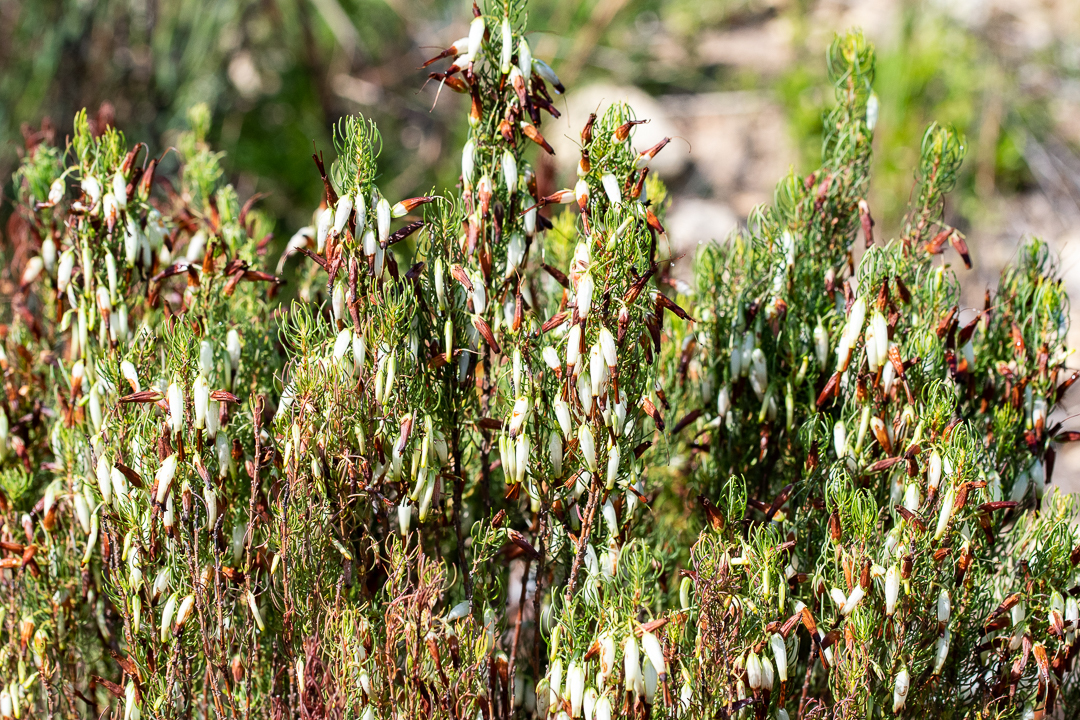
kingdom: Plantae
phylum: Tracheophyta
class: Magnoliopsida
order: Ericales
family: Ericaceae
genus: Erica
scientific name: Erica plukenetii
